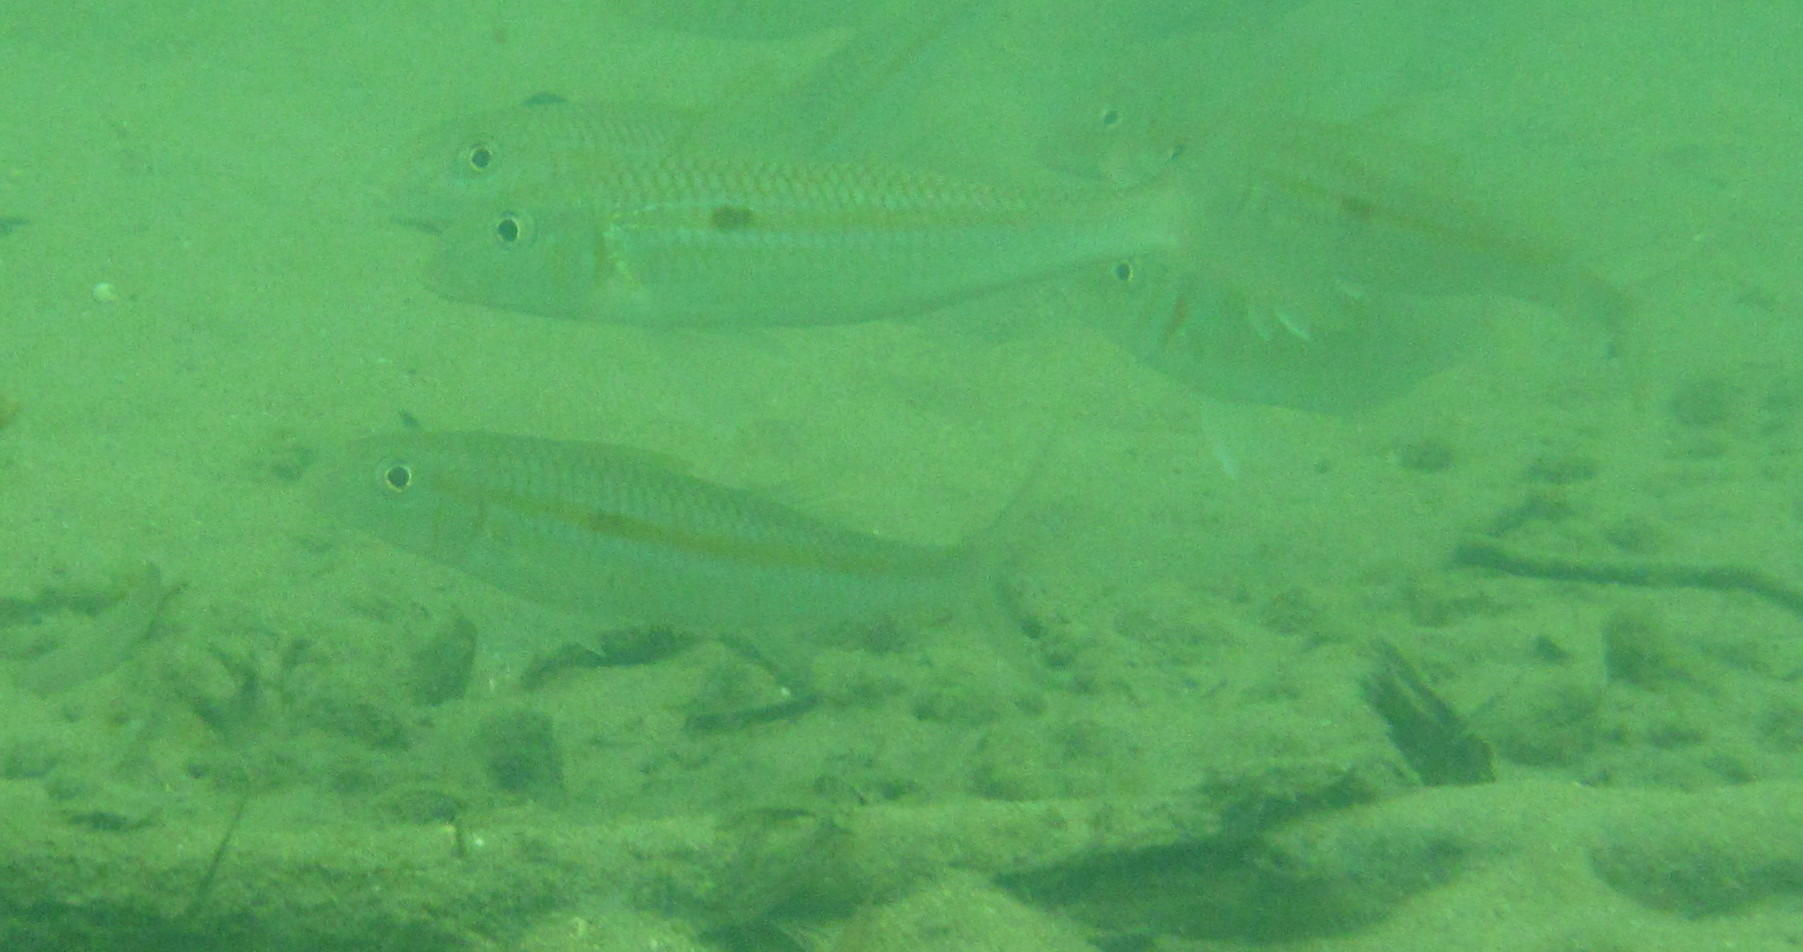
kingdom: Animalia
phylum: Chordata
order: Perciformes
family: Mullidae
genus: Mulloidichthys
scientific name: Mulloidichthys flavolineatus
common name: Yellowstripe goatfish
